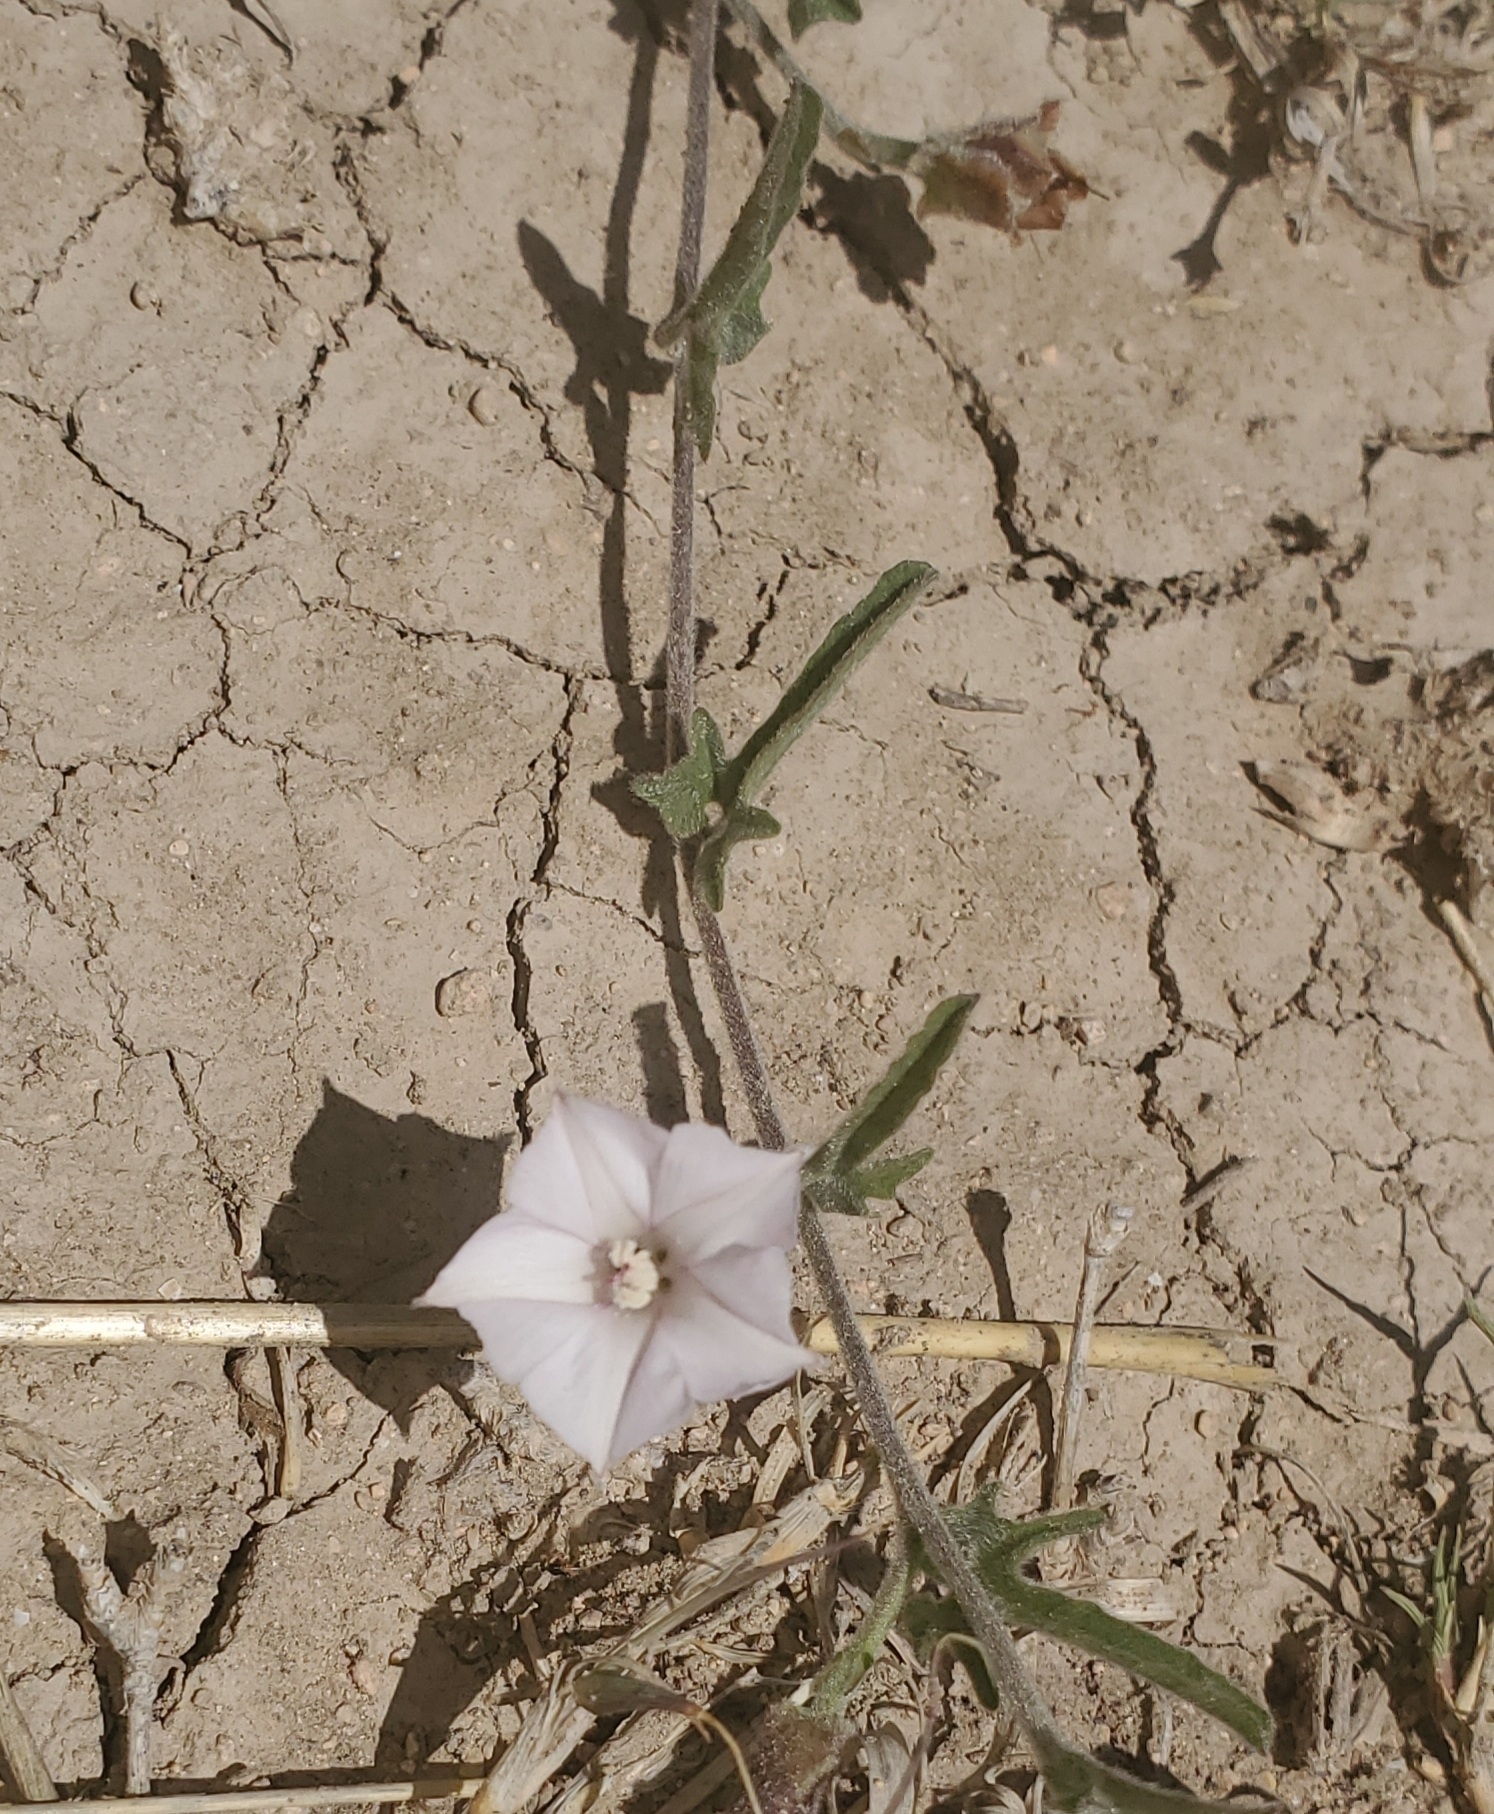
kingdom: Plantae
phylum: Tracheophyta
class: Magnoliopsida
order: Solanales
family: Convolvulaceae
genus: Convolvulus
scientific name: Convolvulus equitans
